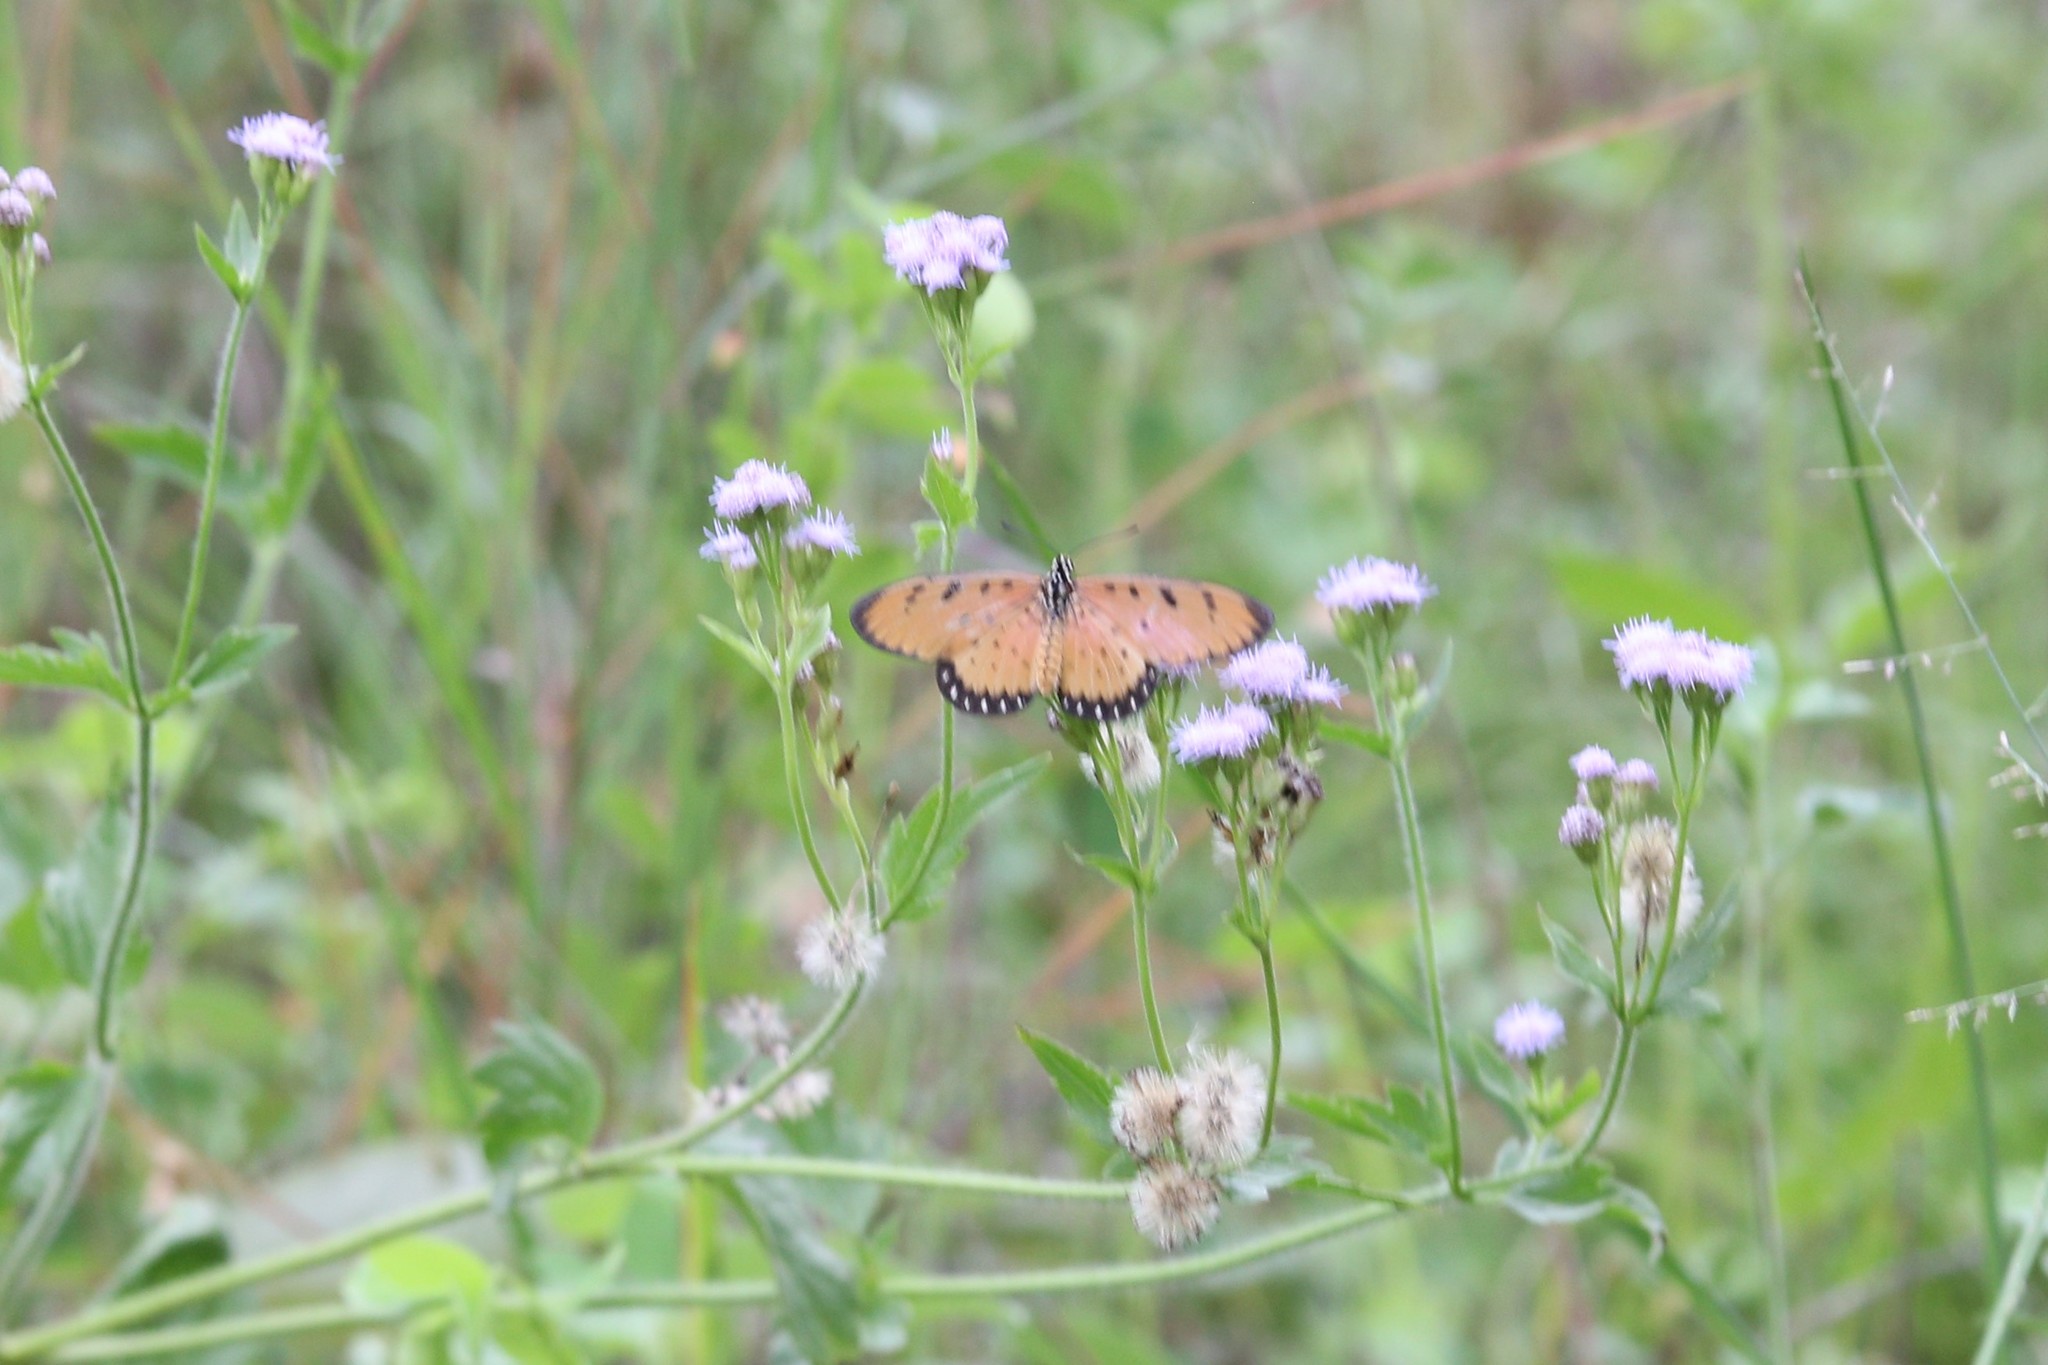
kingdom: Animalia
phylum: Arthropoda
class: Insecta
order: Lepidoptera
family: Nymphalidae
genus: Acraea
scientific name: Acraea terpsicore
